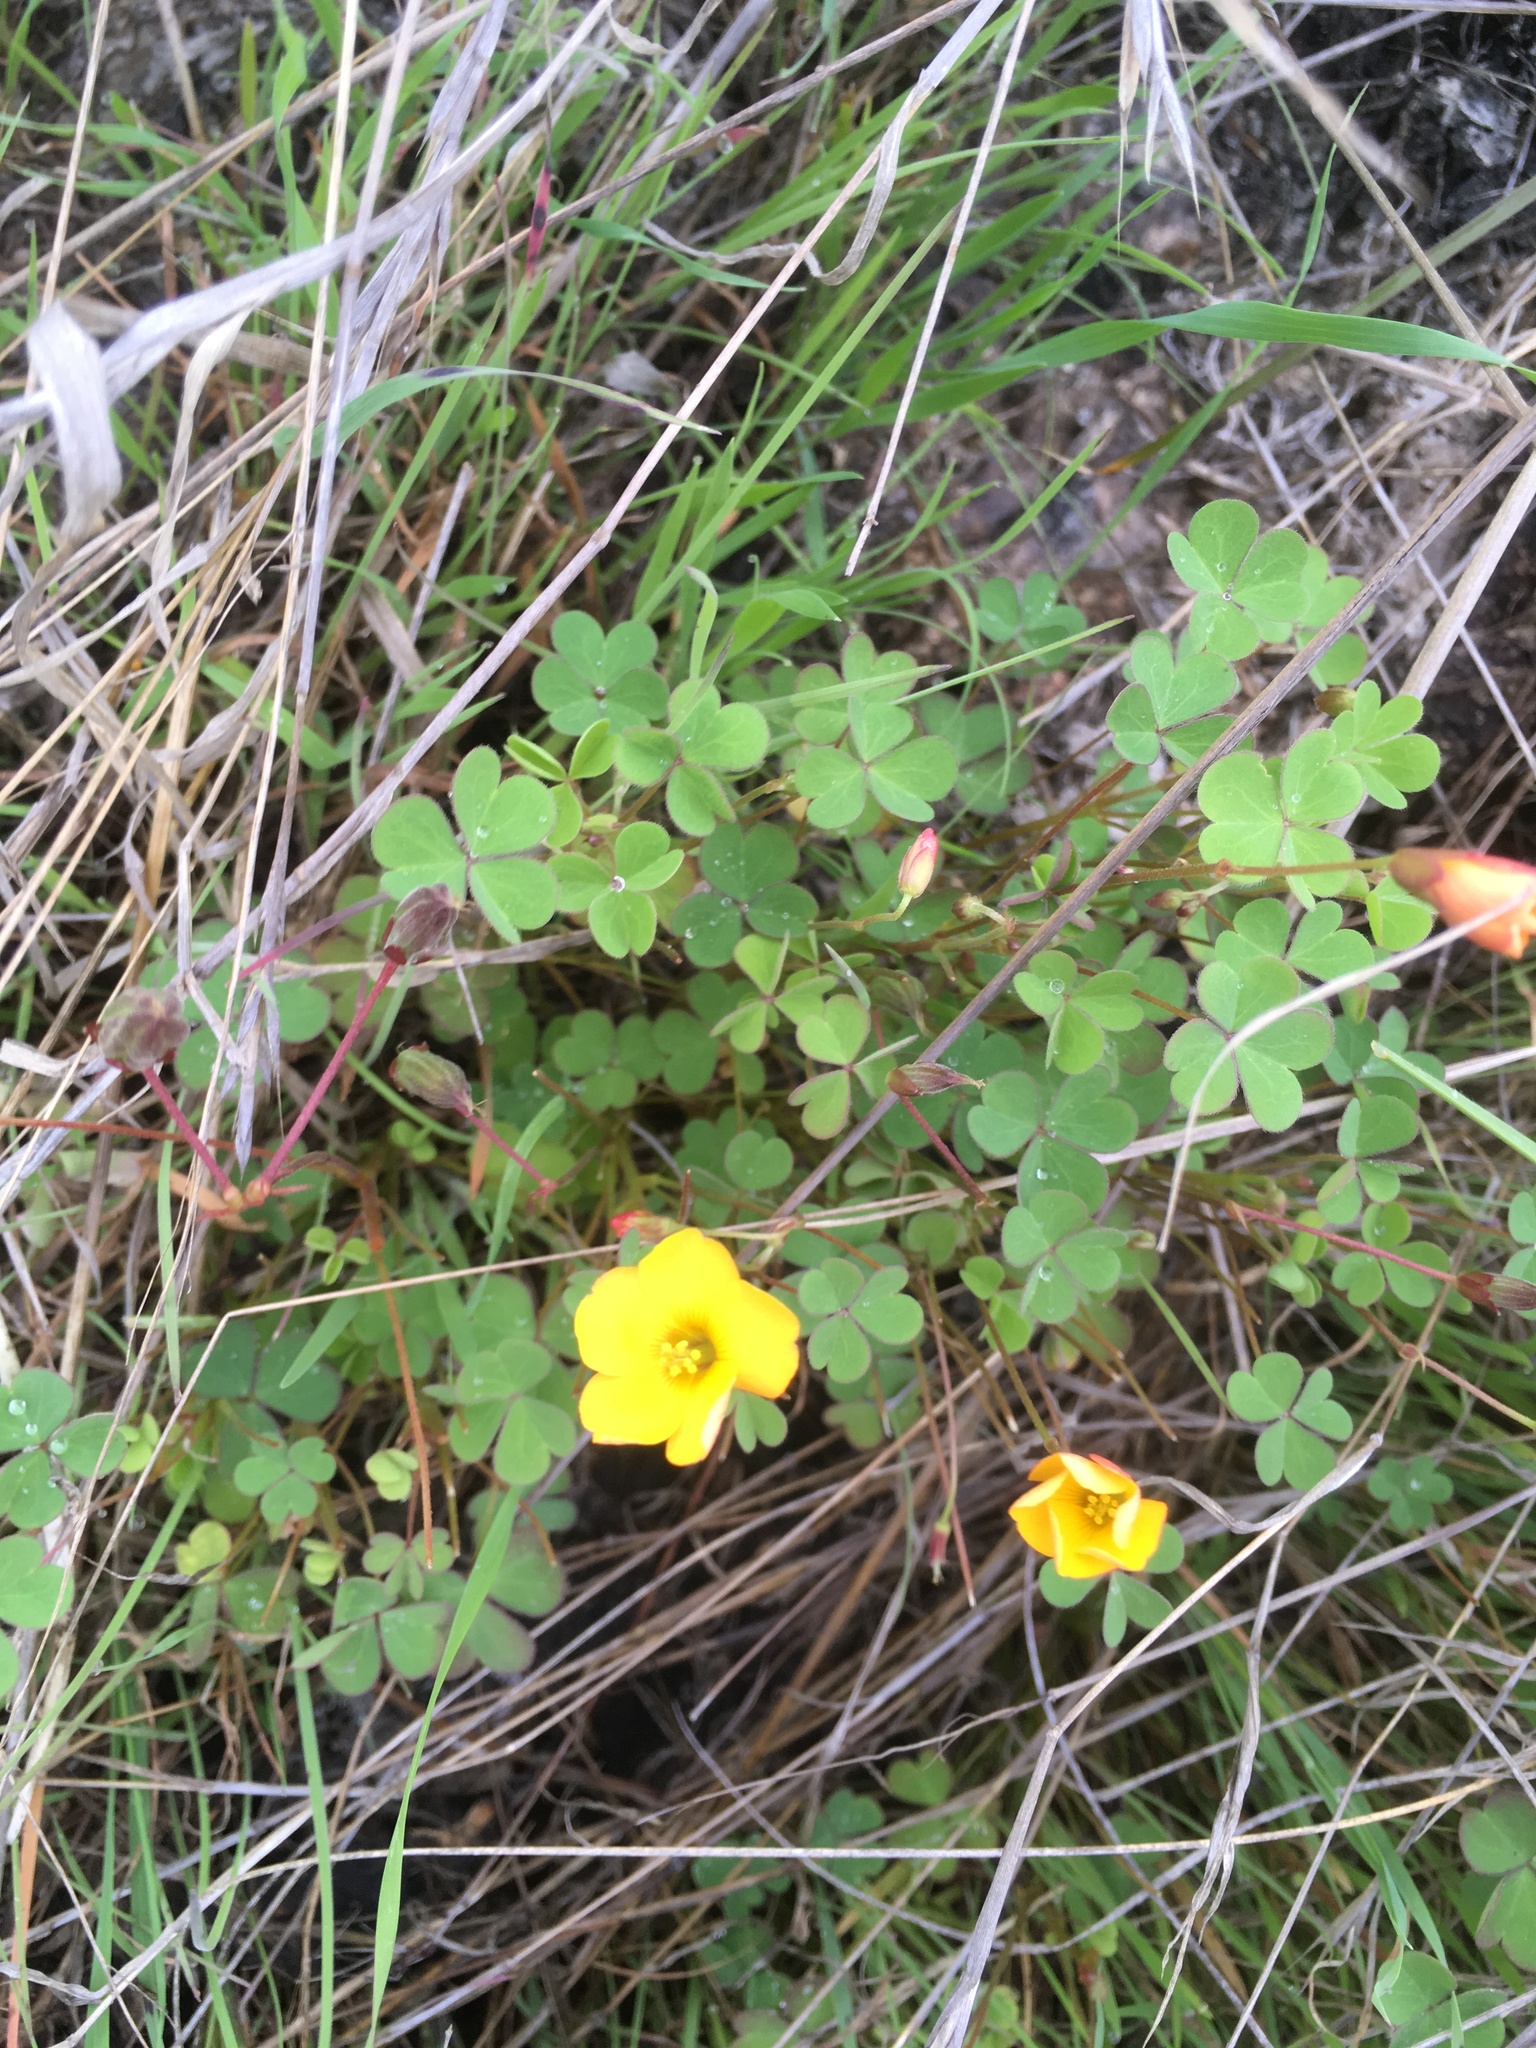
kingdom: Plantae
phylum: Tracheophyta
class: Magnoliopsida
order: Oxalidales
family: Oxalidaceae
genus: Oxalis
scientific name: Oxalis californica
